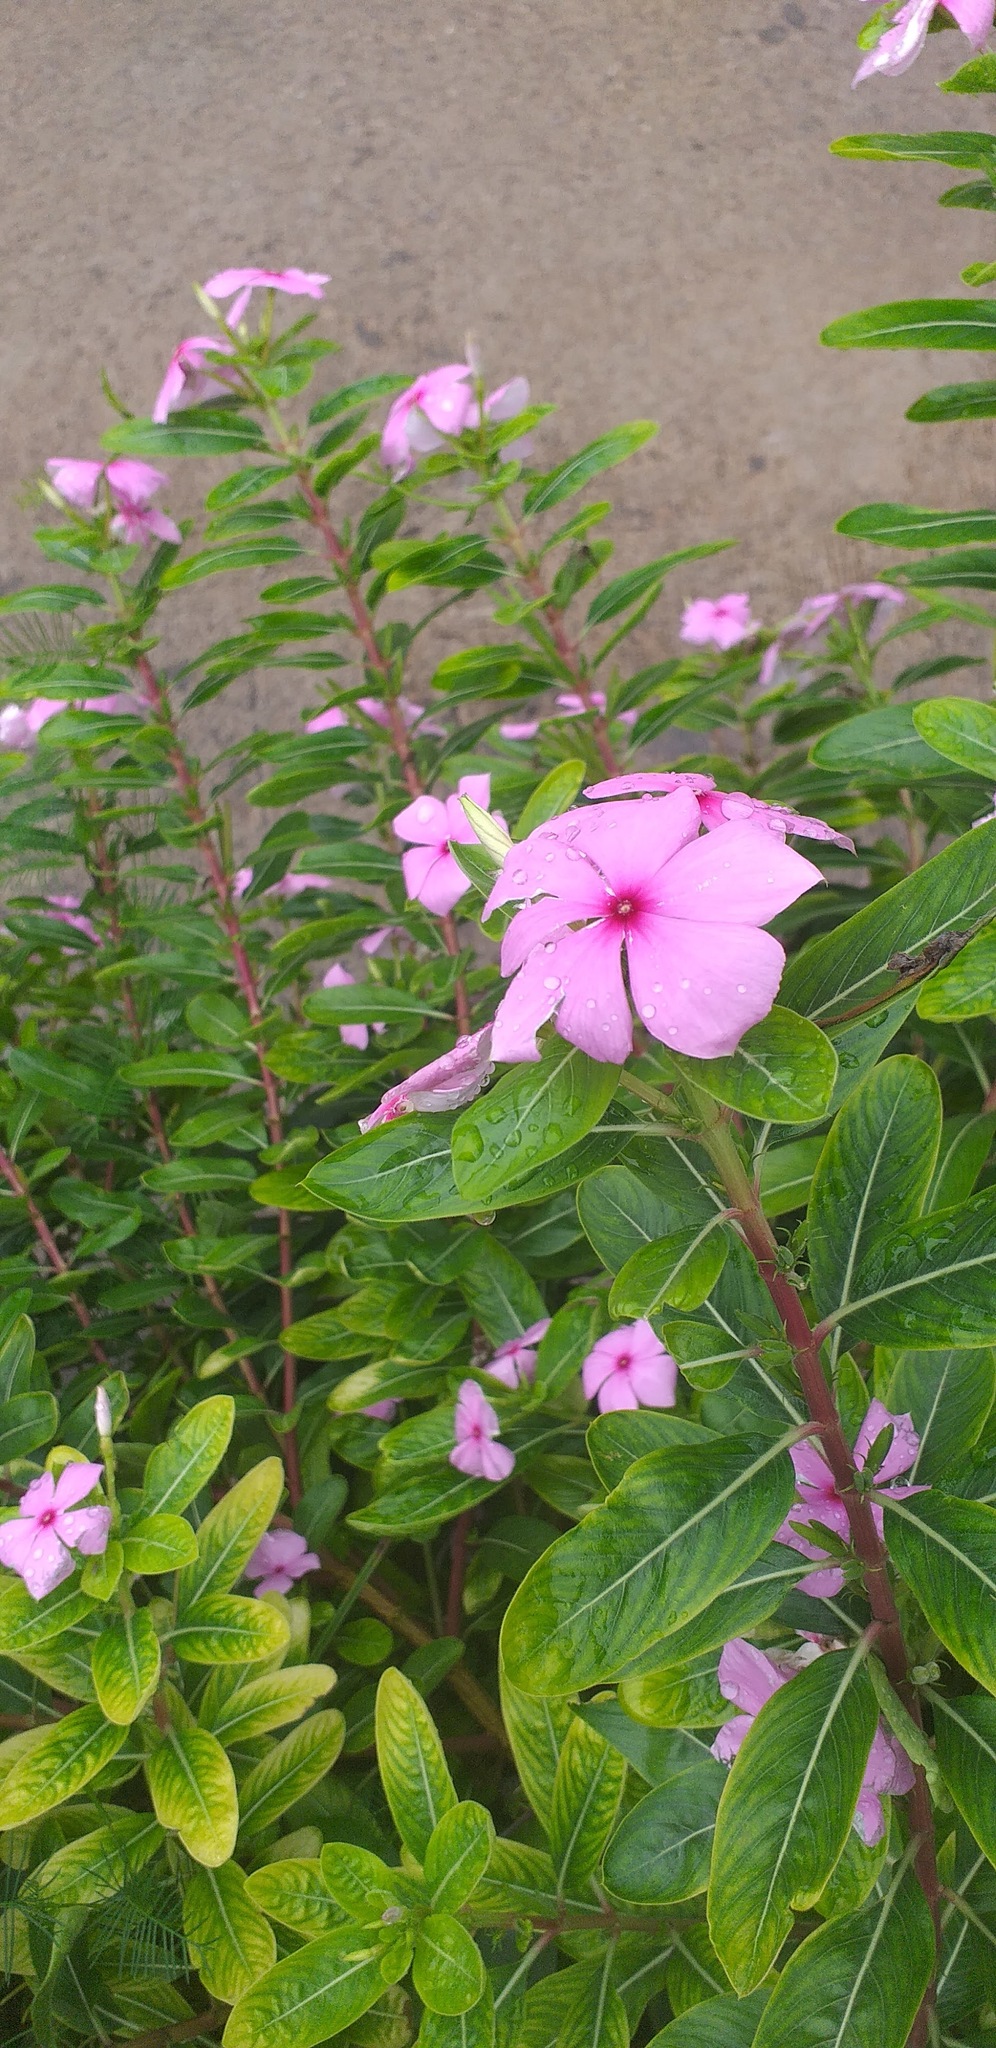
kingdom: Plantae
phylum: Tracheophyta
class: Magnoliopsida
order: Gentianales
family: Apocynaceae
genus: Catharanthus
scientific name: Catharanthus roseus
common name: Madagascar periwinkle
